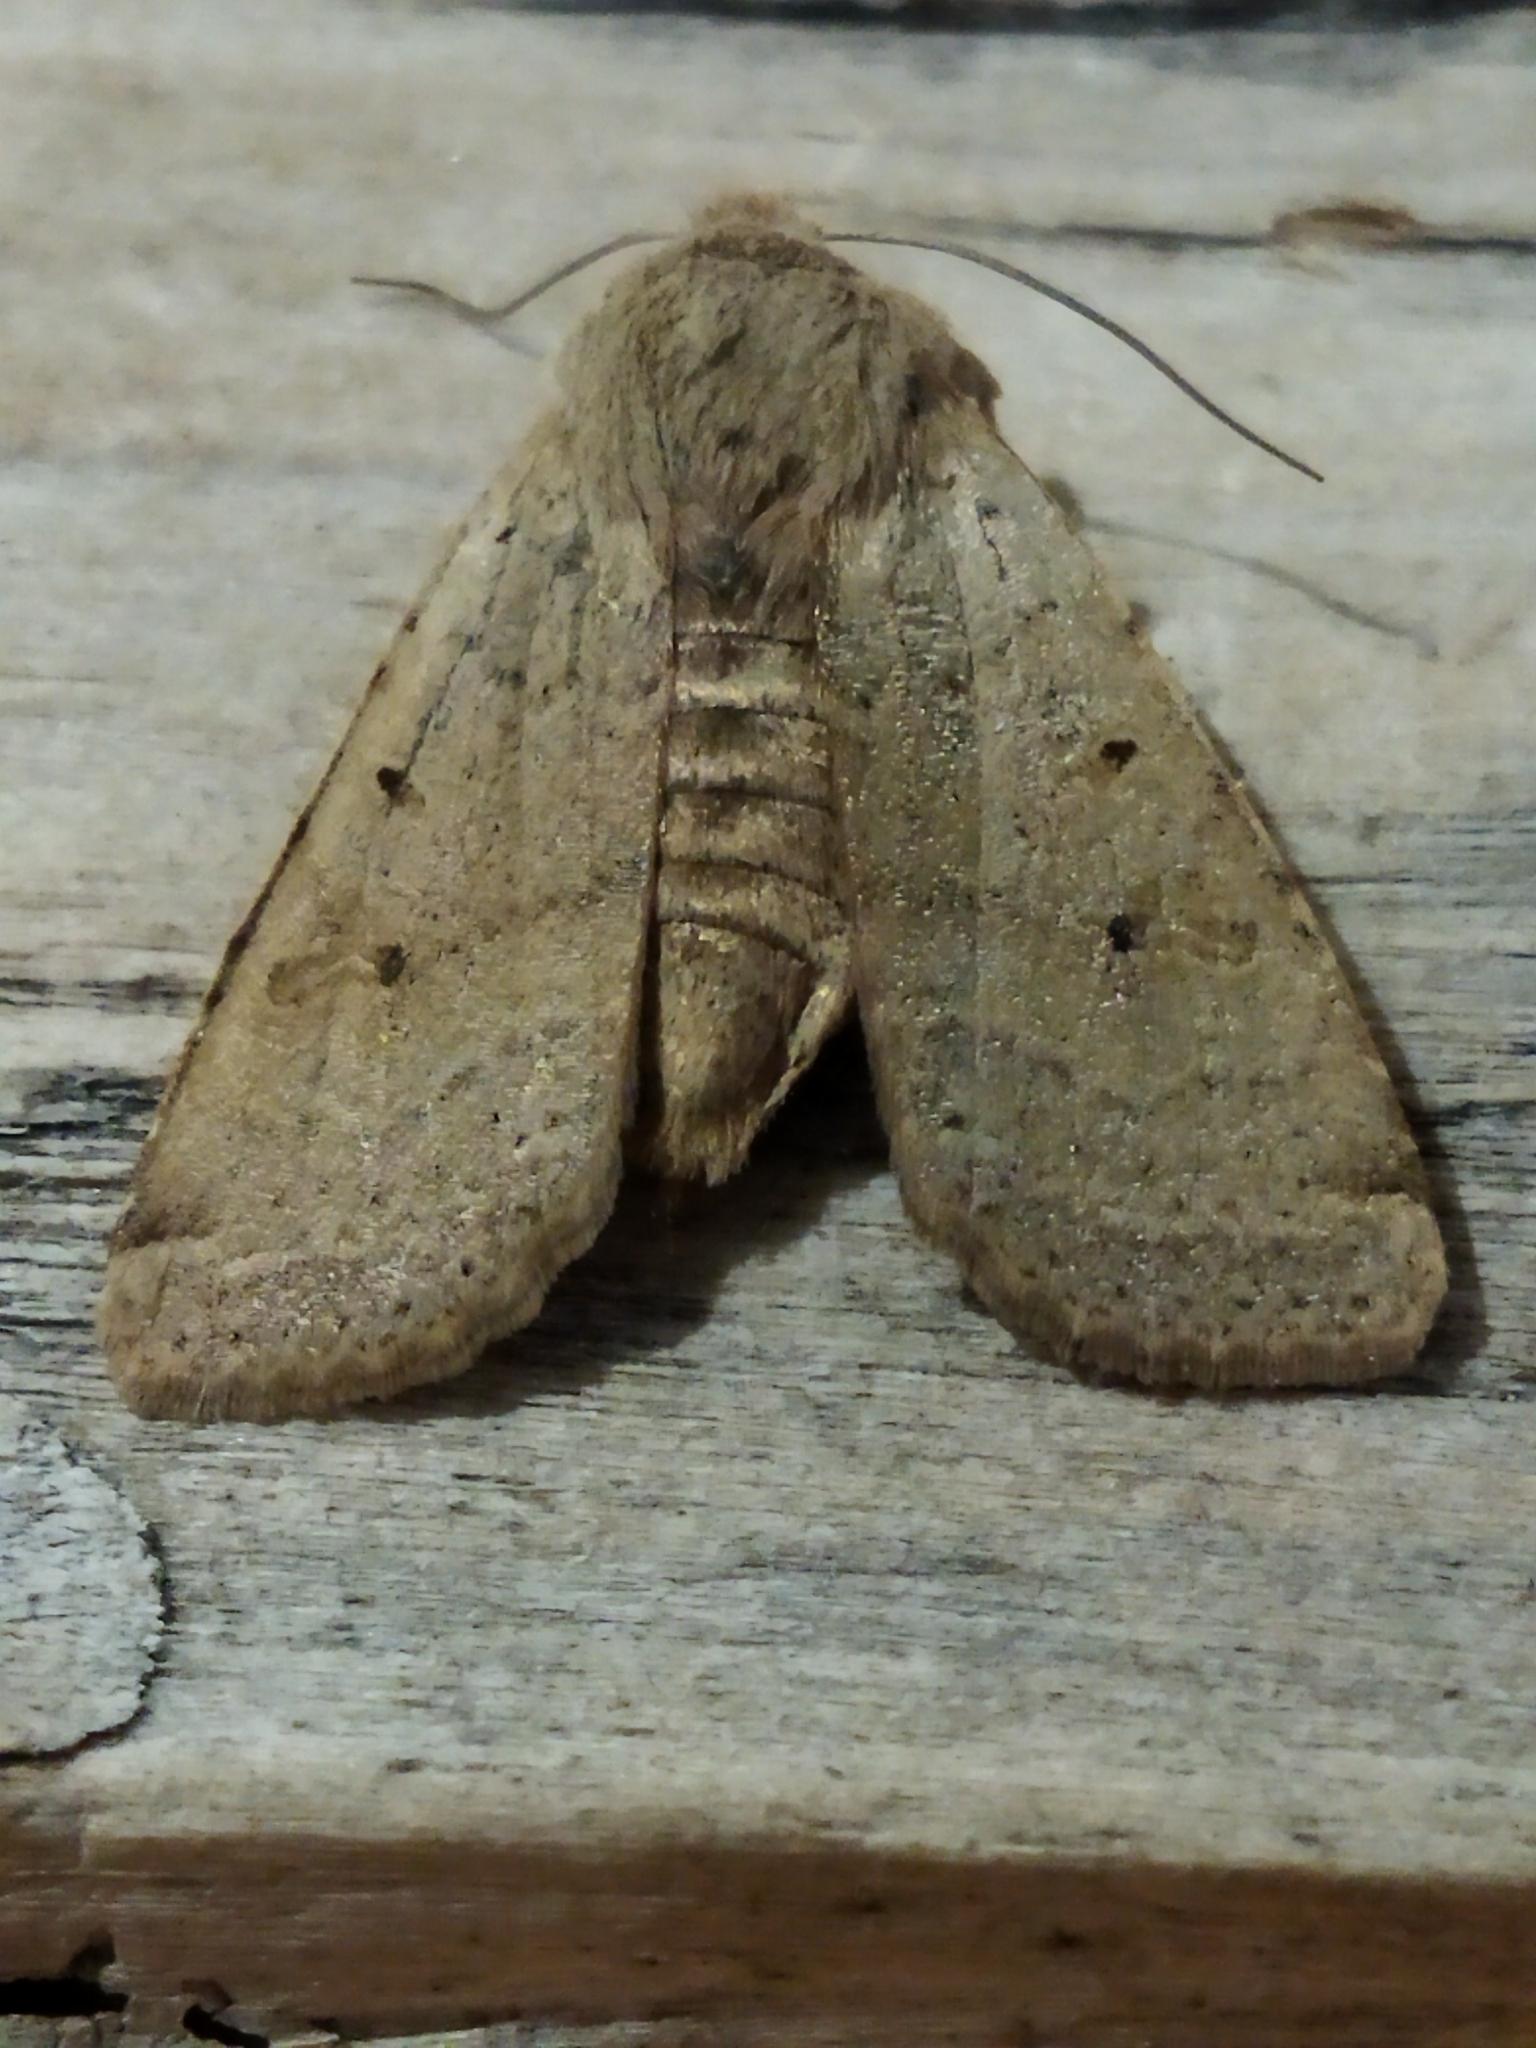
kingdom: Animalia
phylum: Arthropoda
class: Insecta
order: Lepidoptera
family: Noctuidae
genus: Agrochola
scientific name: Agrochola lychnidis
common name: Beaded chestnut
